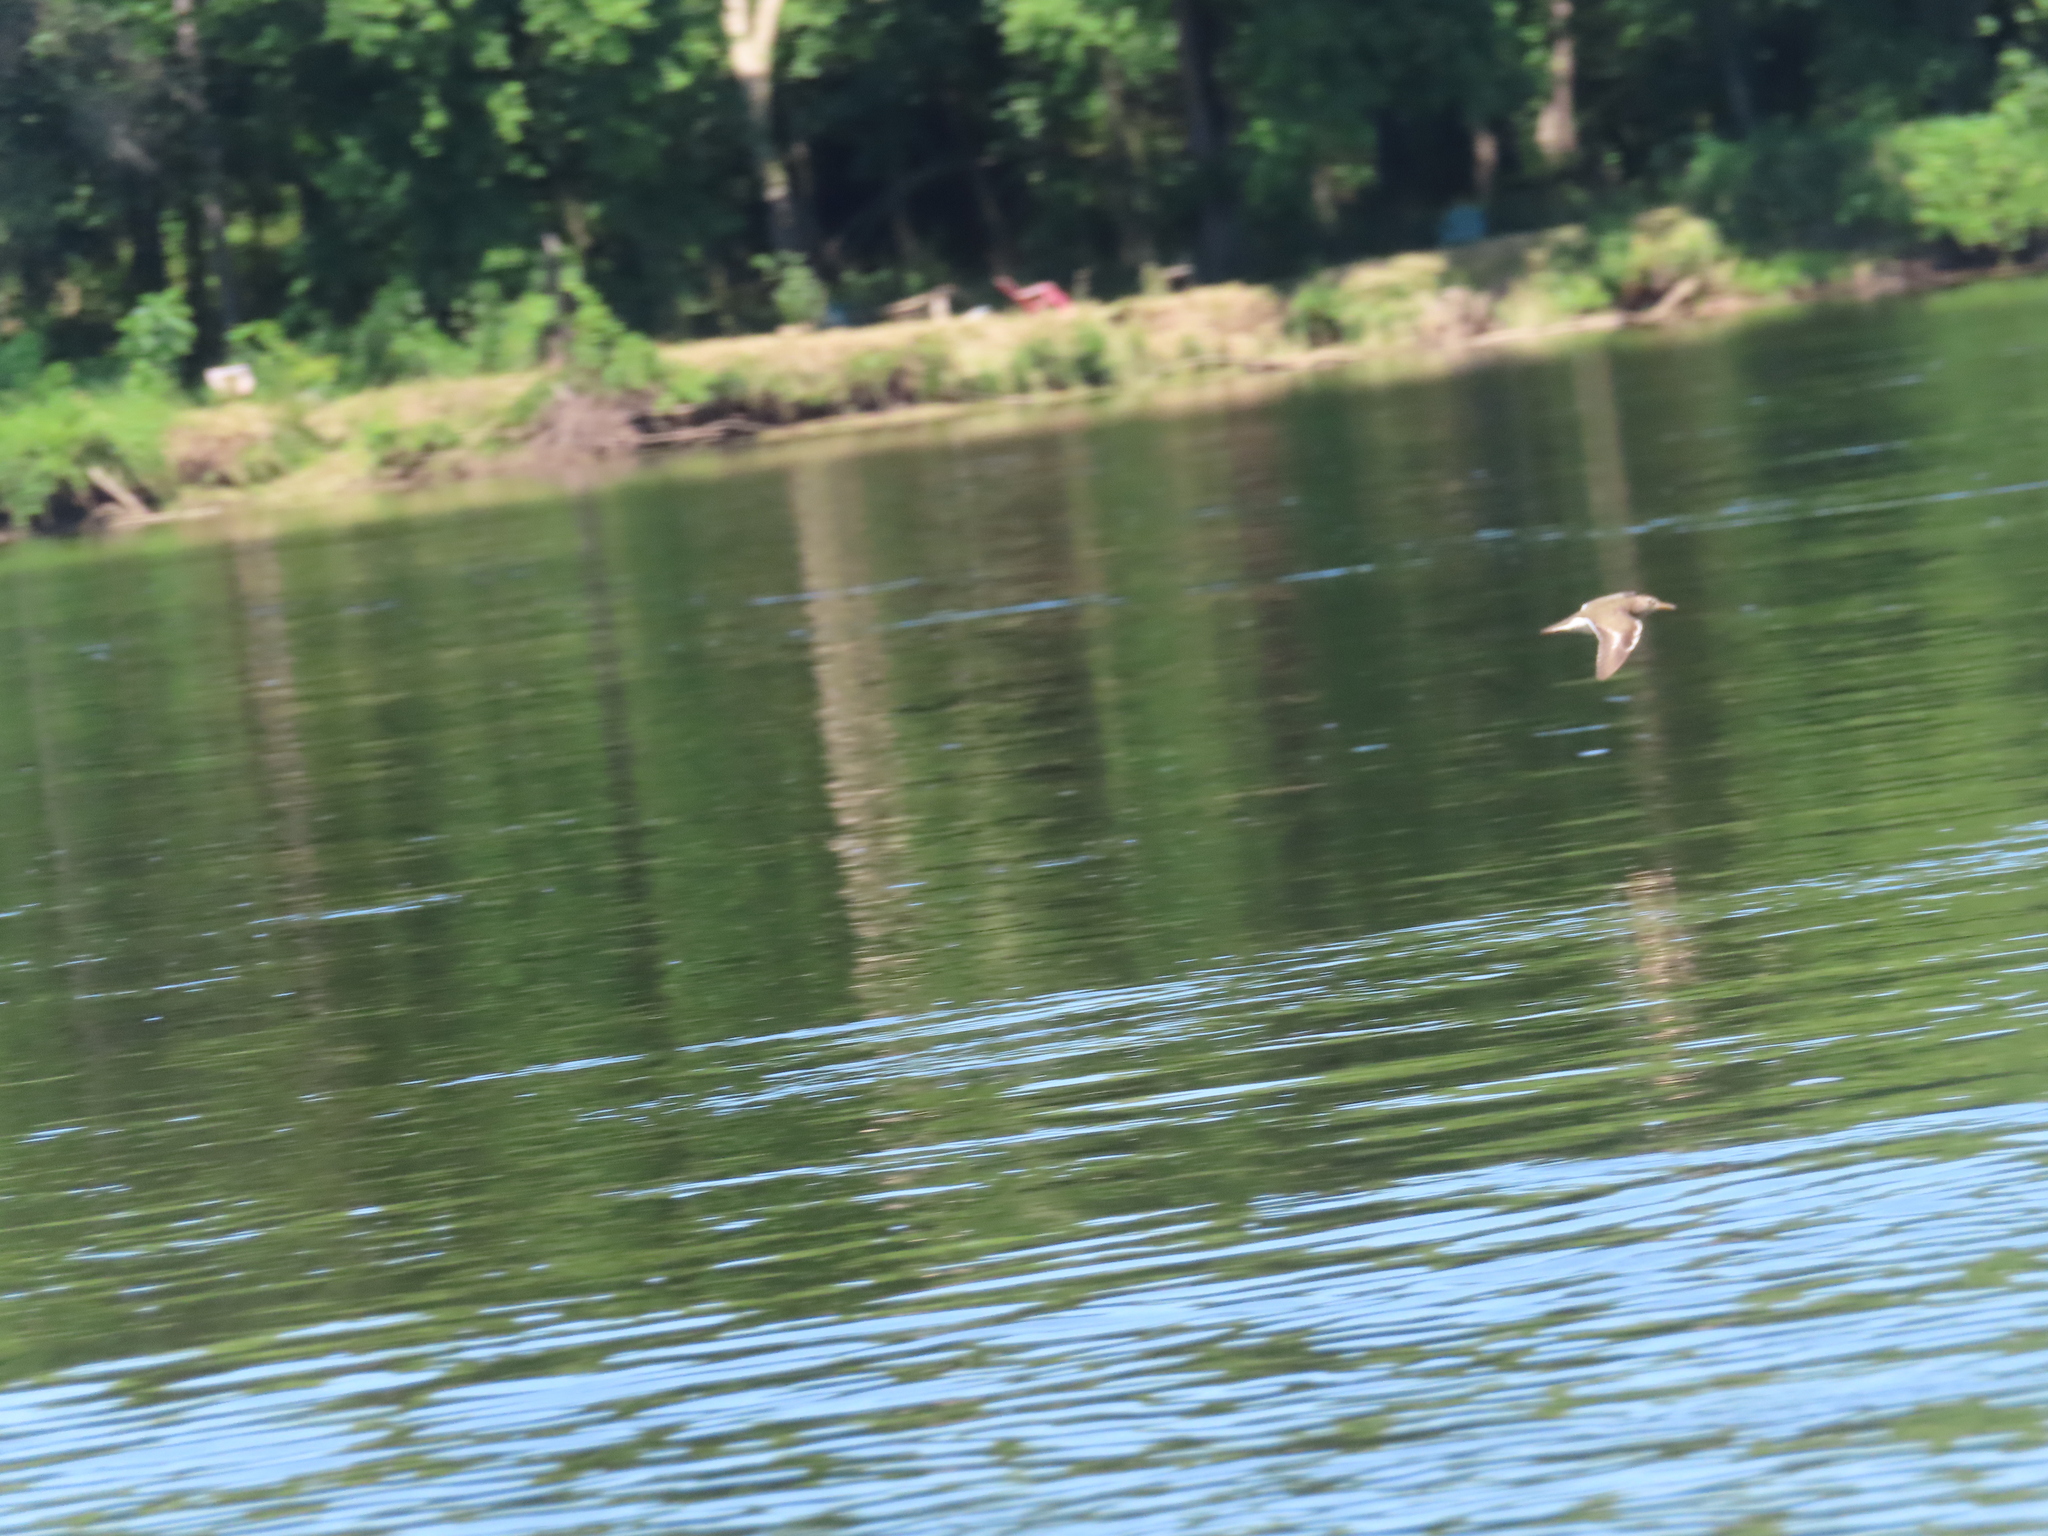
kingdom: Animalia
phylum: Chordata
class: Aves
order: Charadriiformes
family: Scolopacidae
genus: Actitis
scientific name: Actitis macularius
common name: Spotted sandpiper
